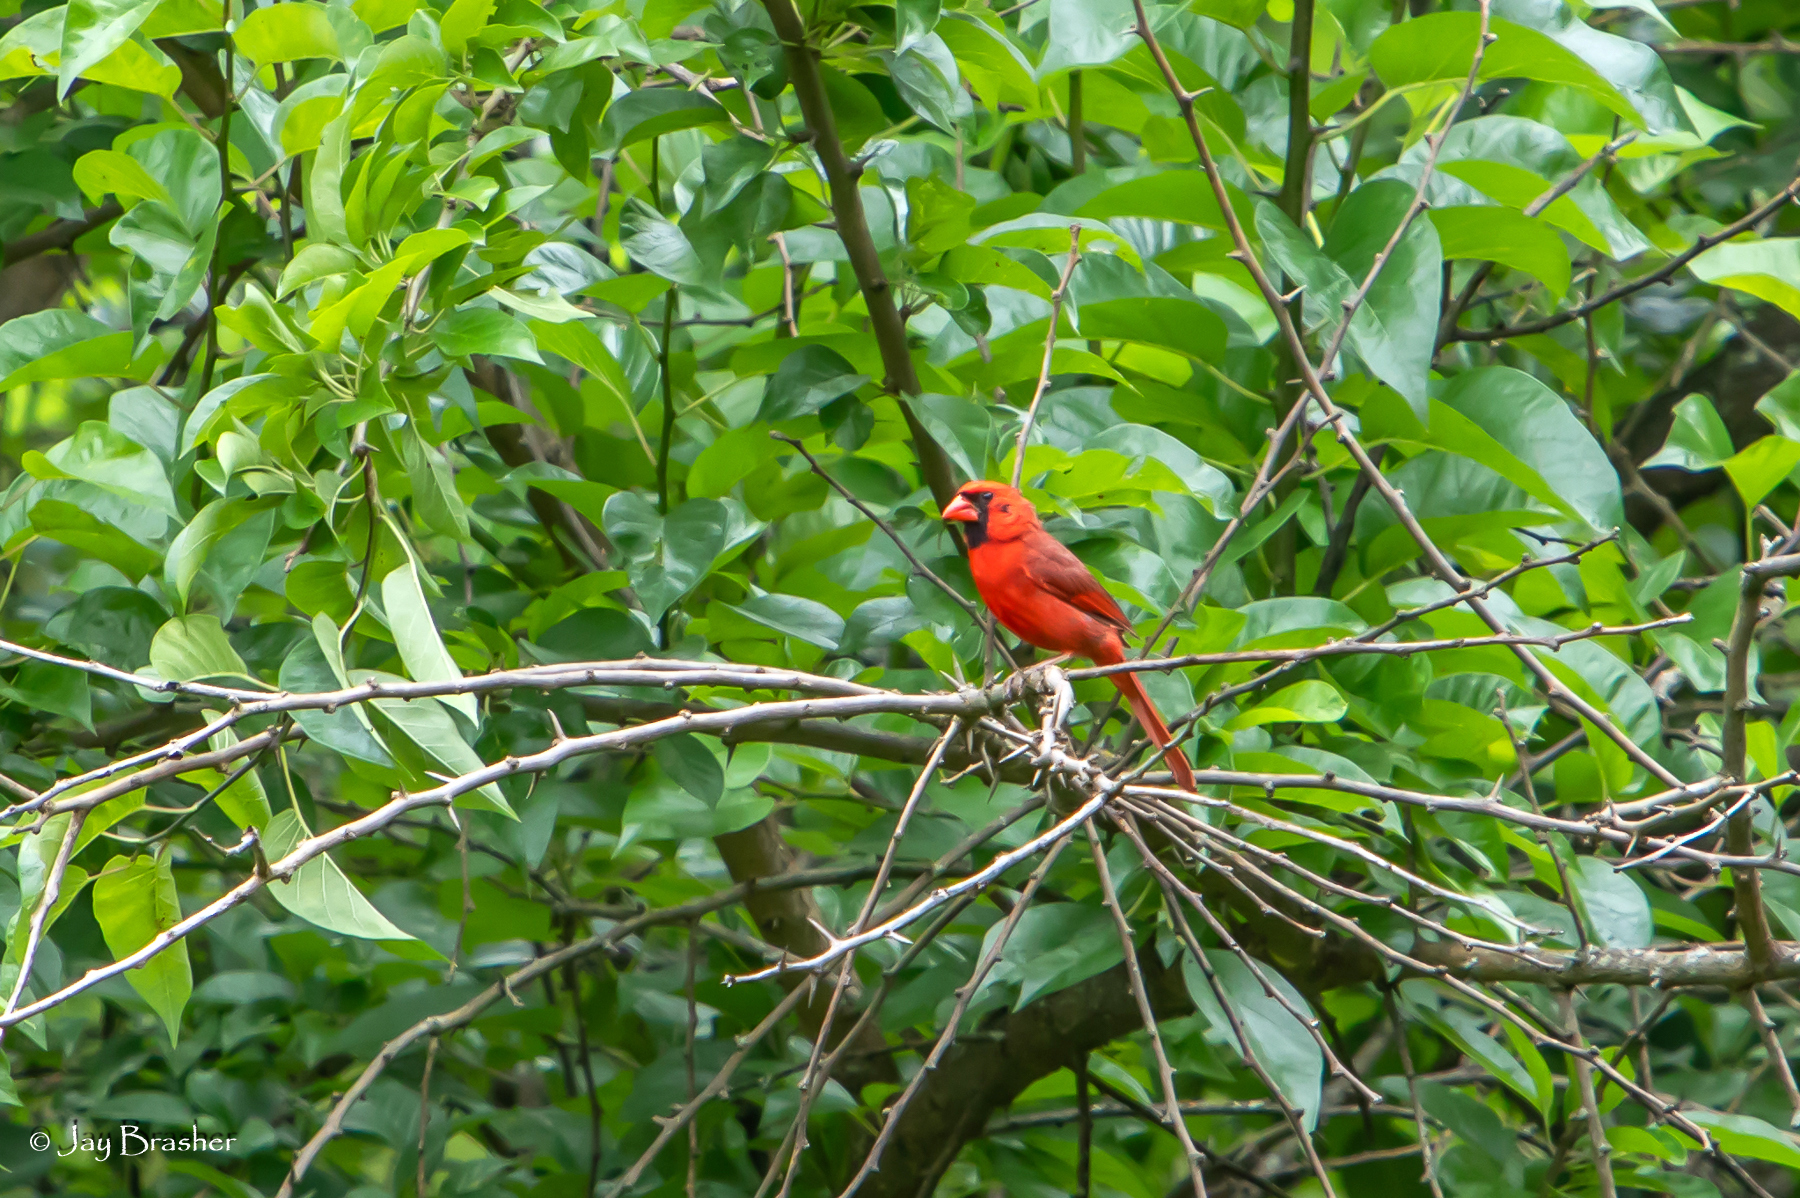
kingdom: Animalia
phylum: Chordata
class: Aves
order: Passeriformes
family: Cardinalidae
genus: Cardinalis
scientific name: Cardinalis cardinalis
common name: Northern cardinal
